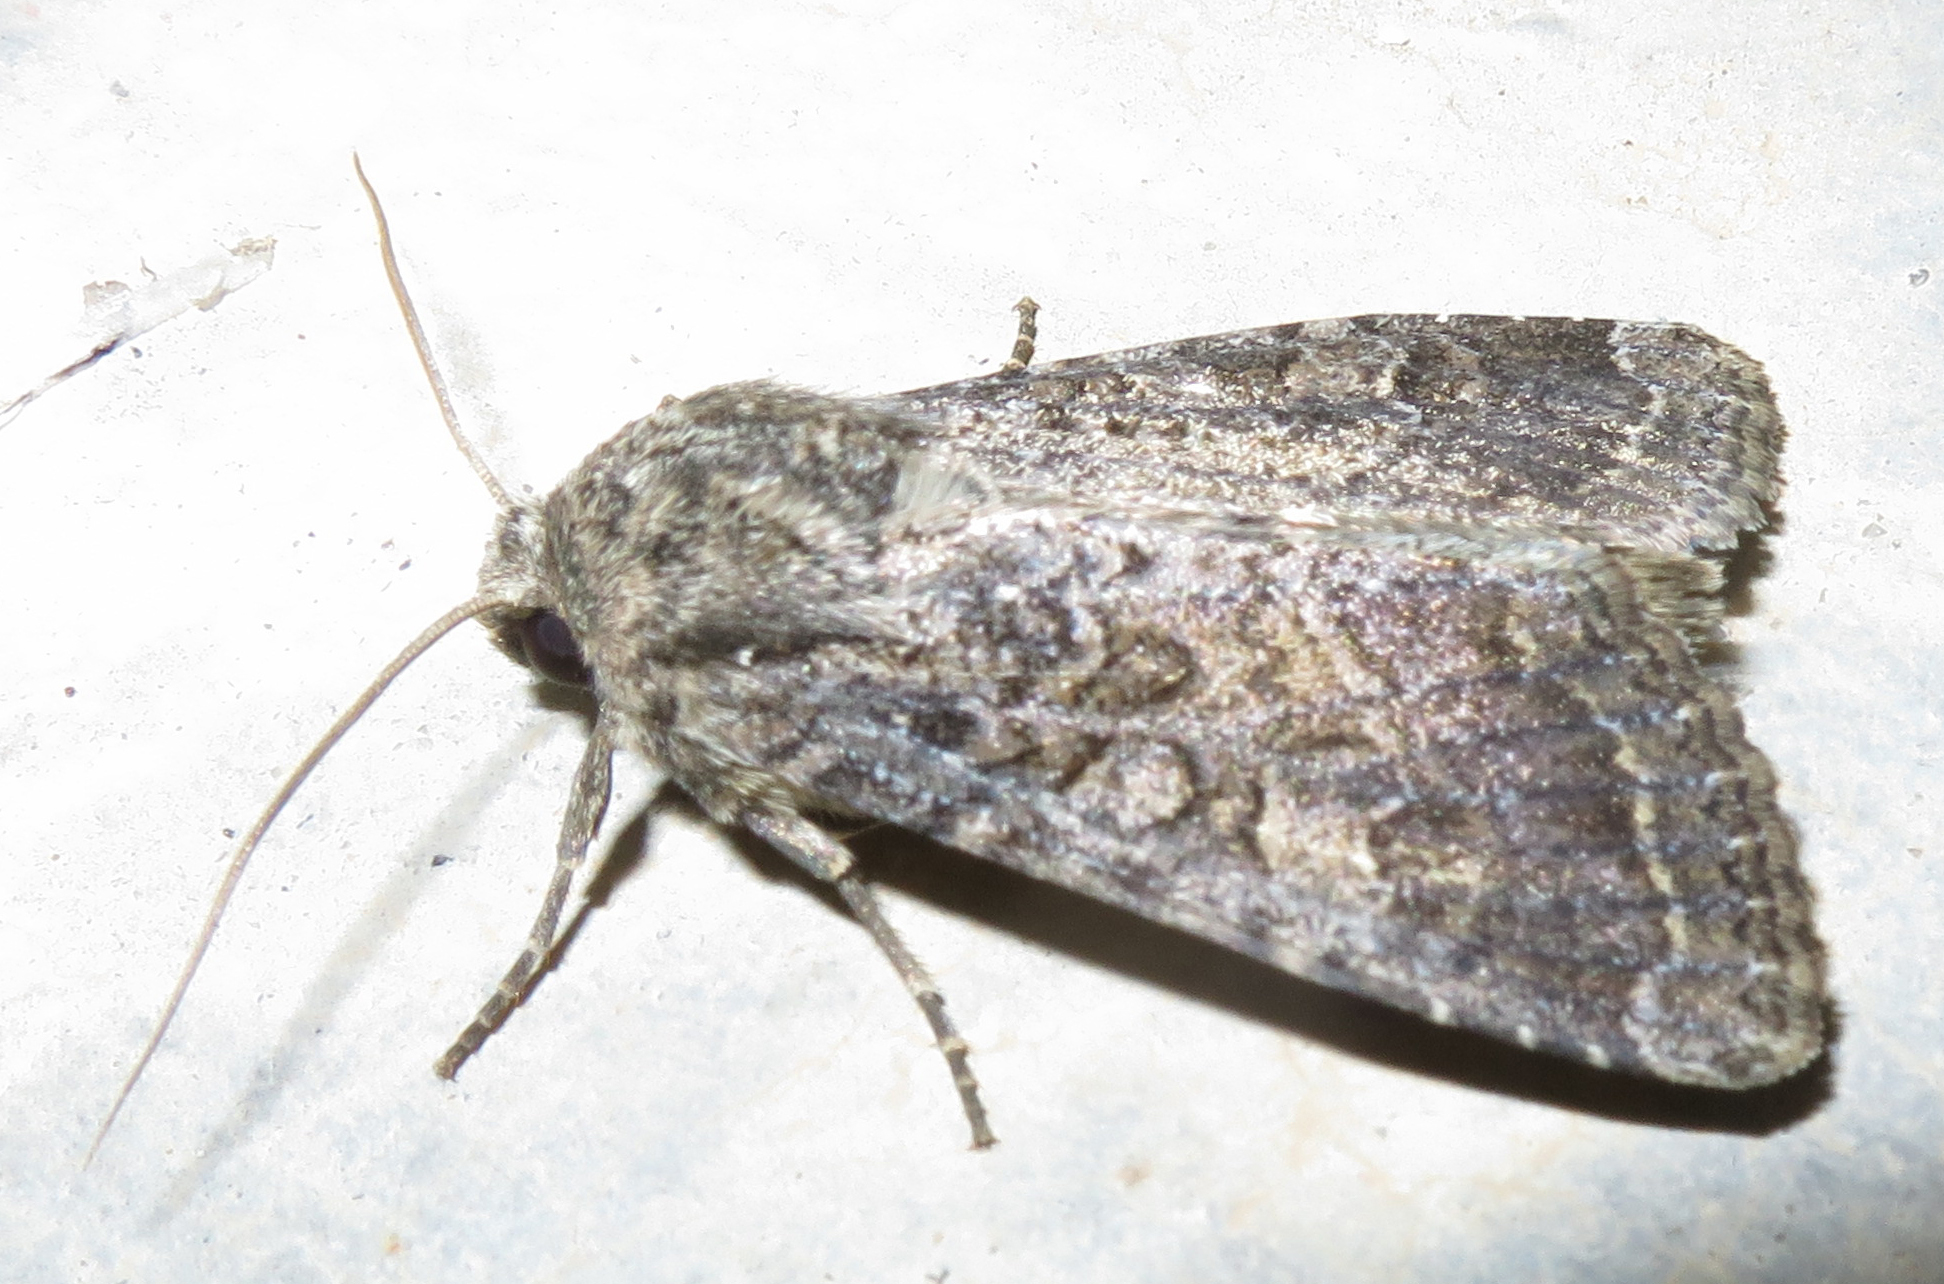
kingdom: Animalia
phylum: Arthropoda
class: Insecta
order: Lepidoptera
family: Noctuidae
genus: Apamea
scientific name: Apamea devastator
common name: Glassy cutworm
